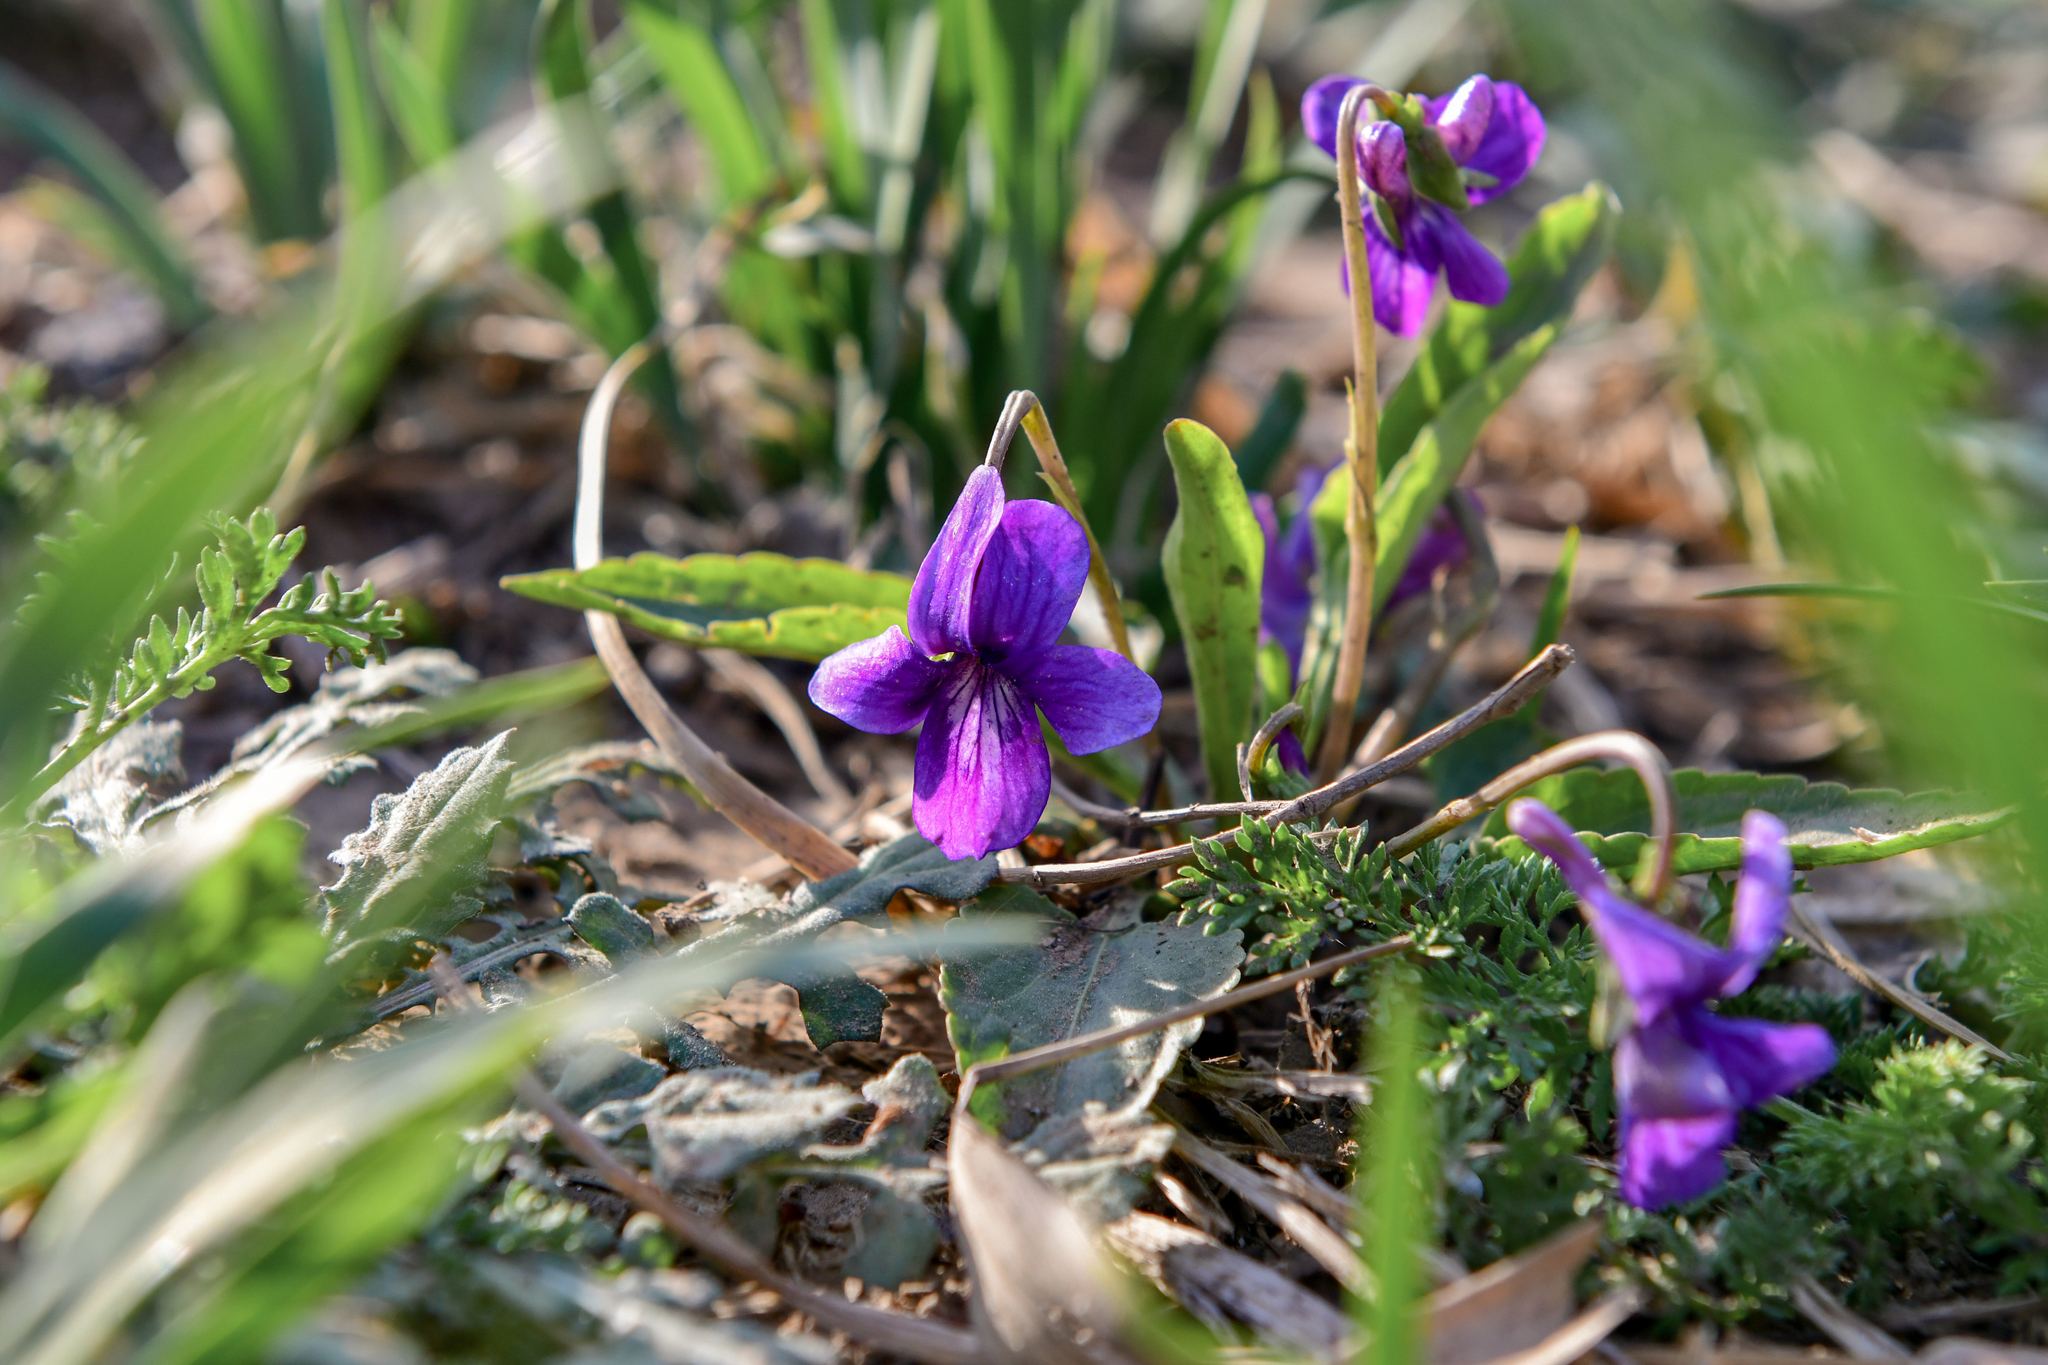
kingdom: Plantae
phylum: Tracheophyta
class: Magnoliopsida
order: Malpighiales
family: Violaceae
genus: Viola
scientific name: Viola prionantha
